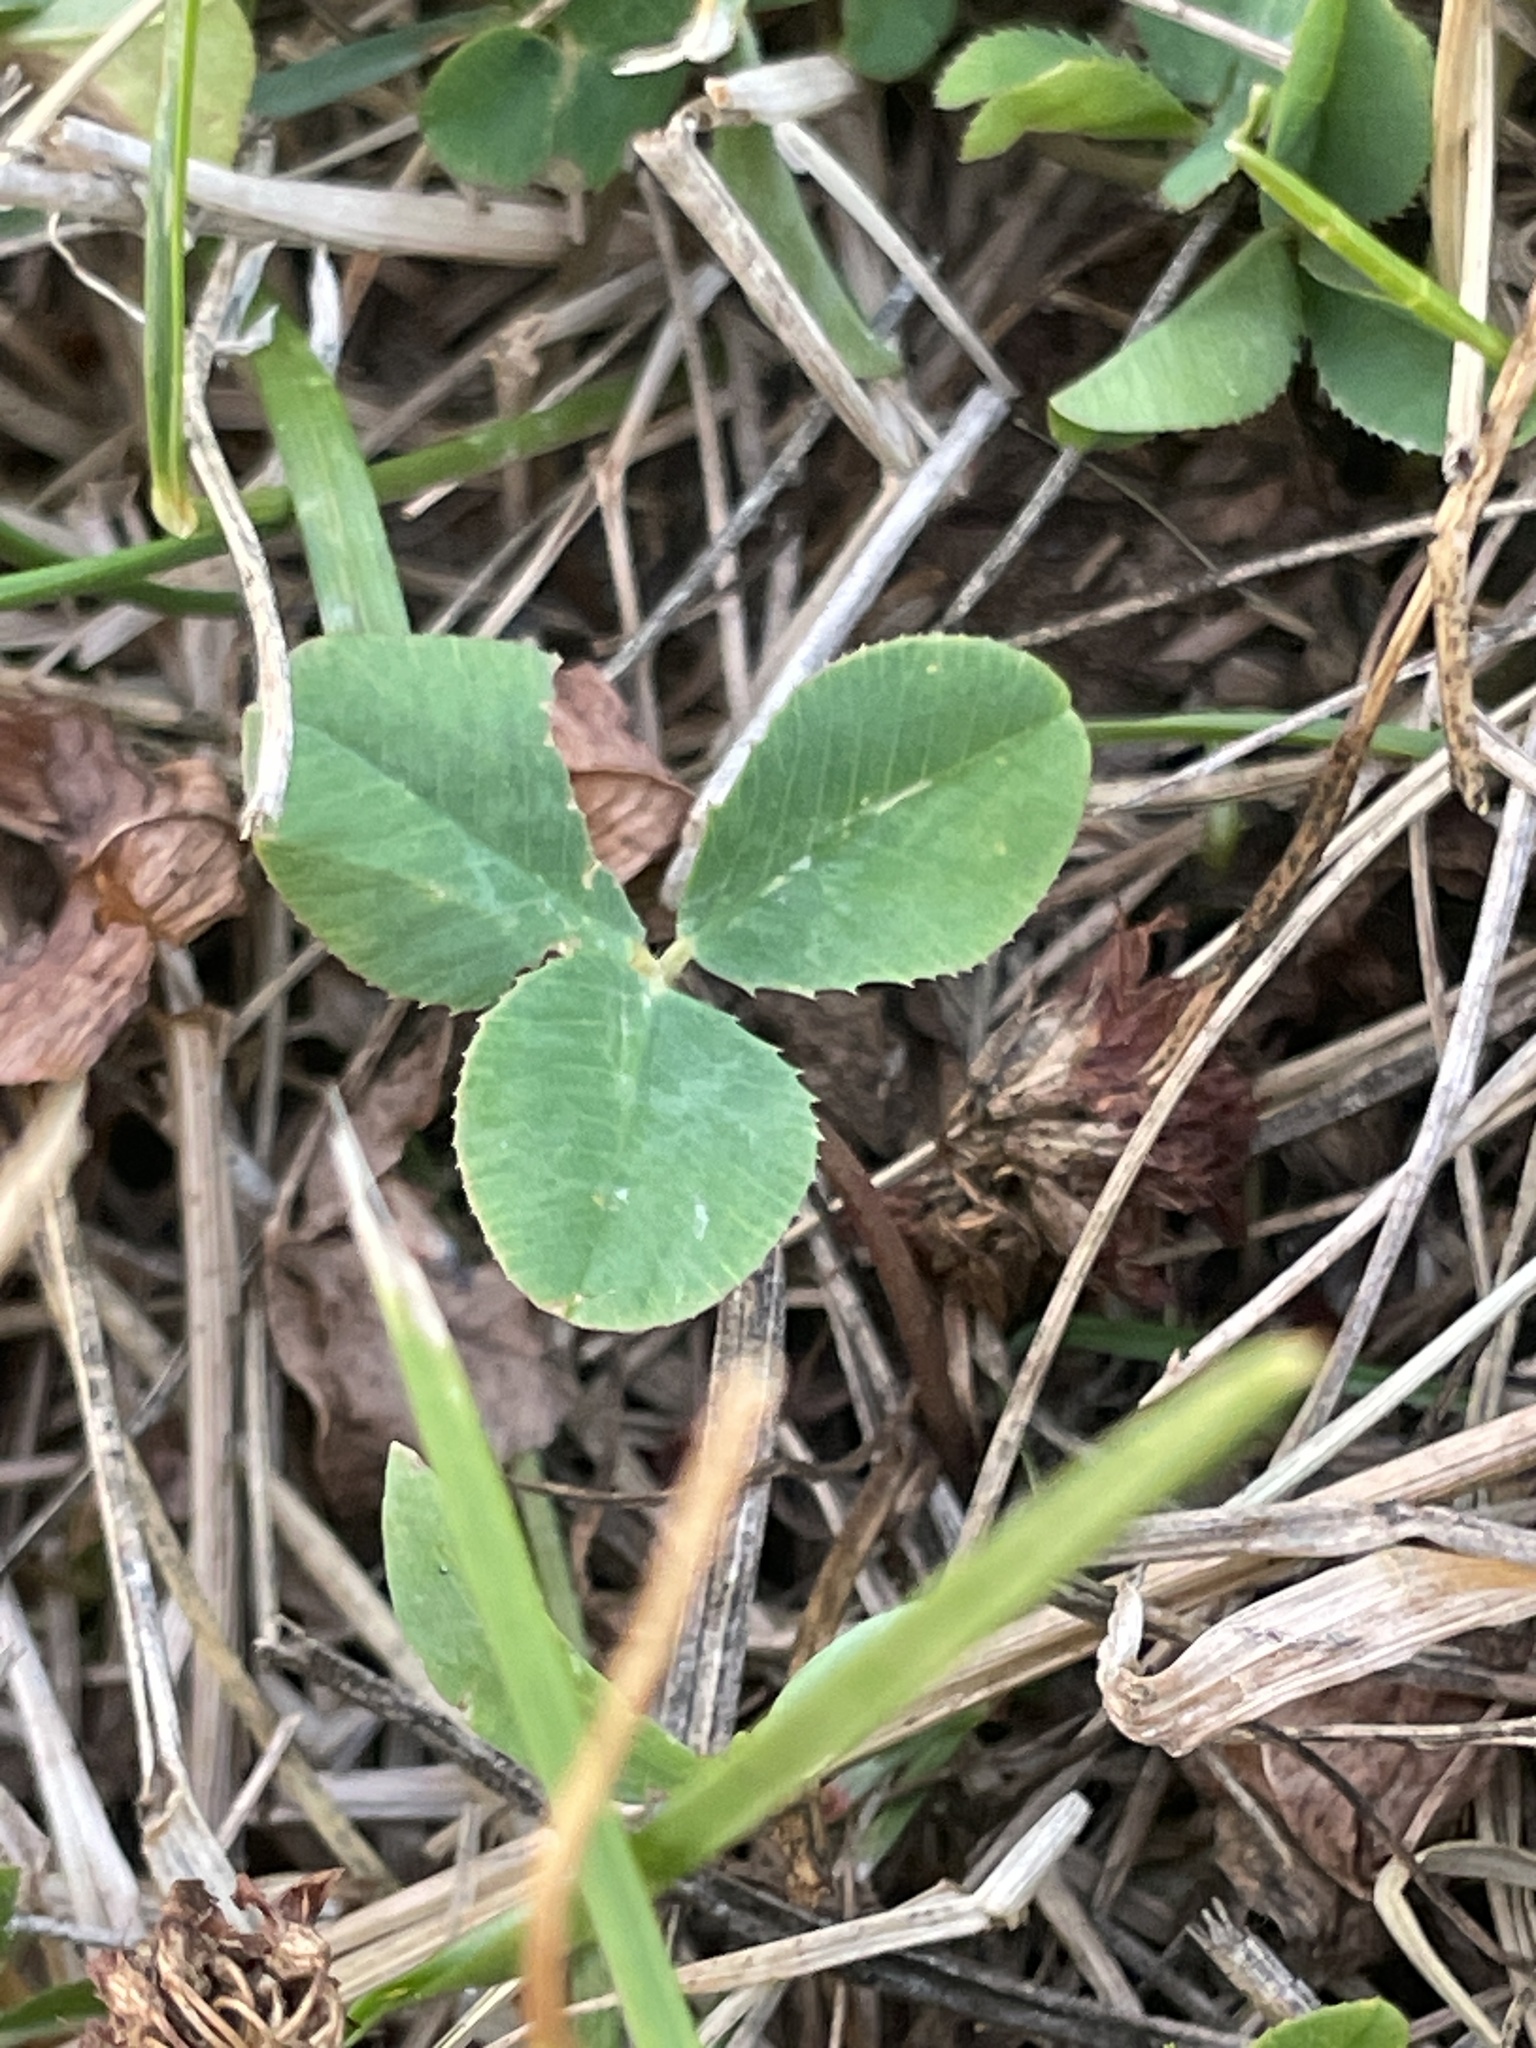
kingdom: Plantae
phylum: Tracheophyta
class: Magnoliopsida
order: Fabales
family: Fabaceae
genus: Trifolium
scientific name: Trifolium repens
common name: White clover
